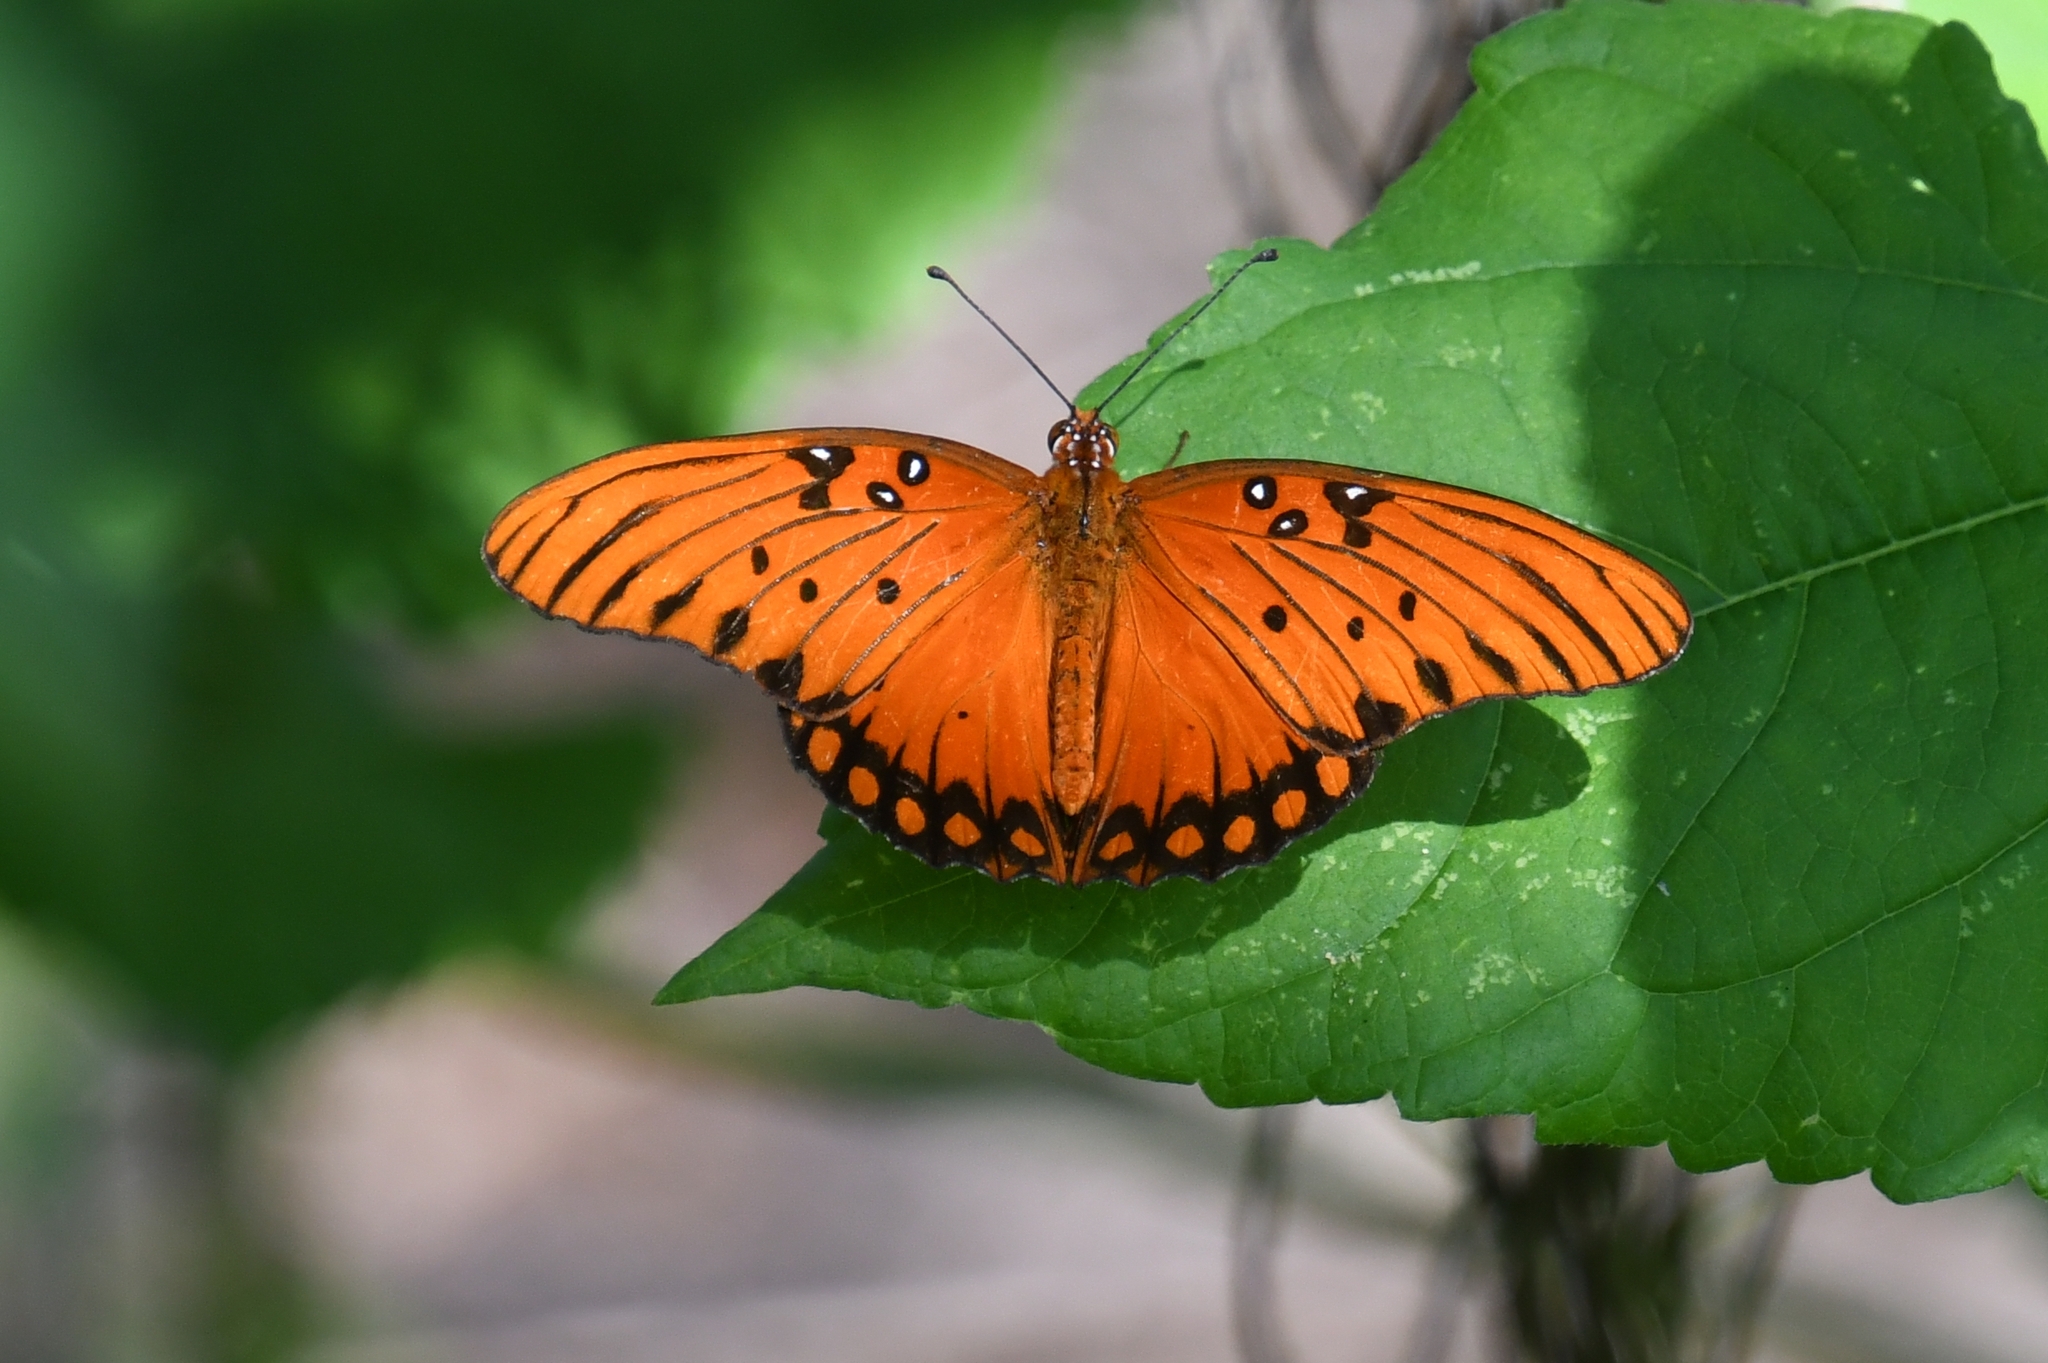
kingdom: Animalia
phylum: Arthropoda
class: Insecta
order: Lepidoptera
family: Nymphalidae
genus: Dione
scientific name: Dione vanillae
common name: Gulf fritillary
